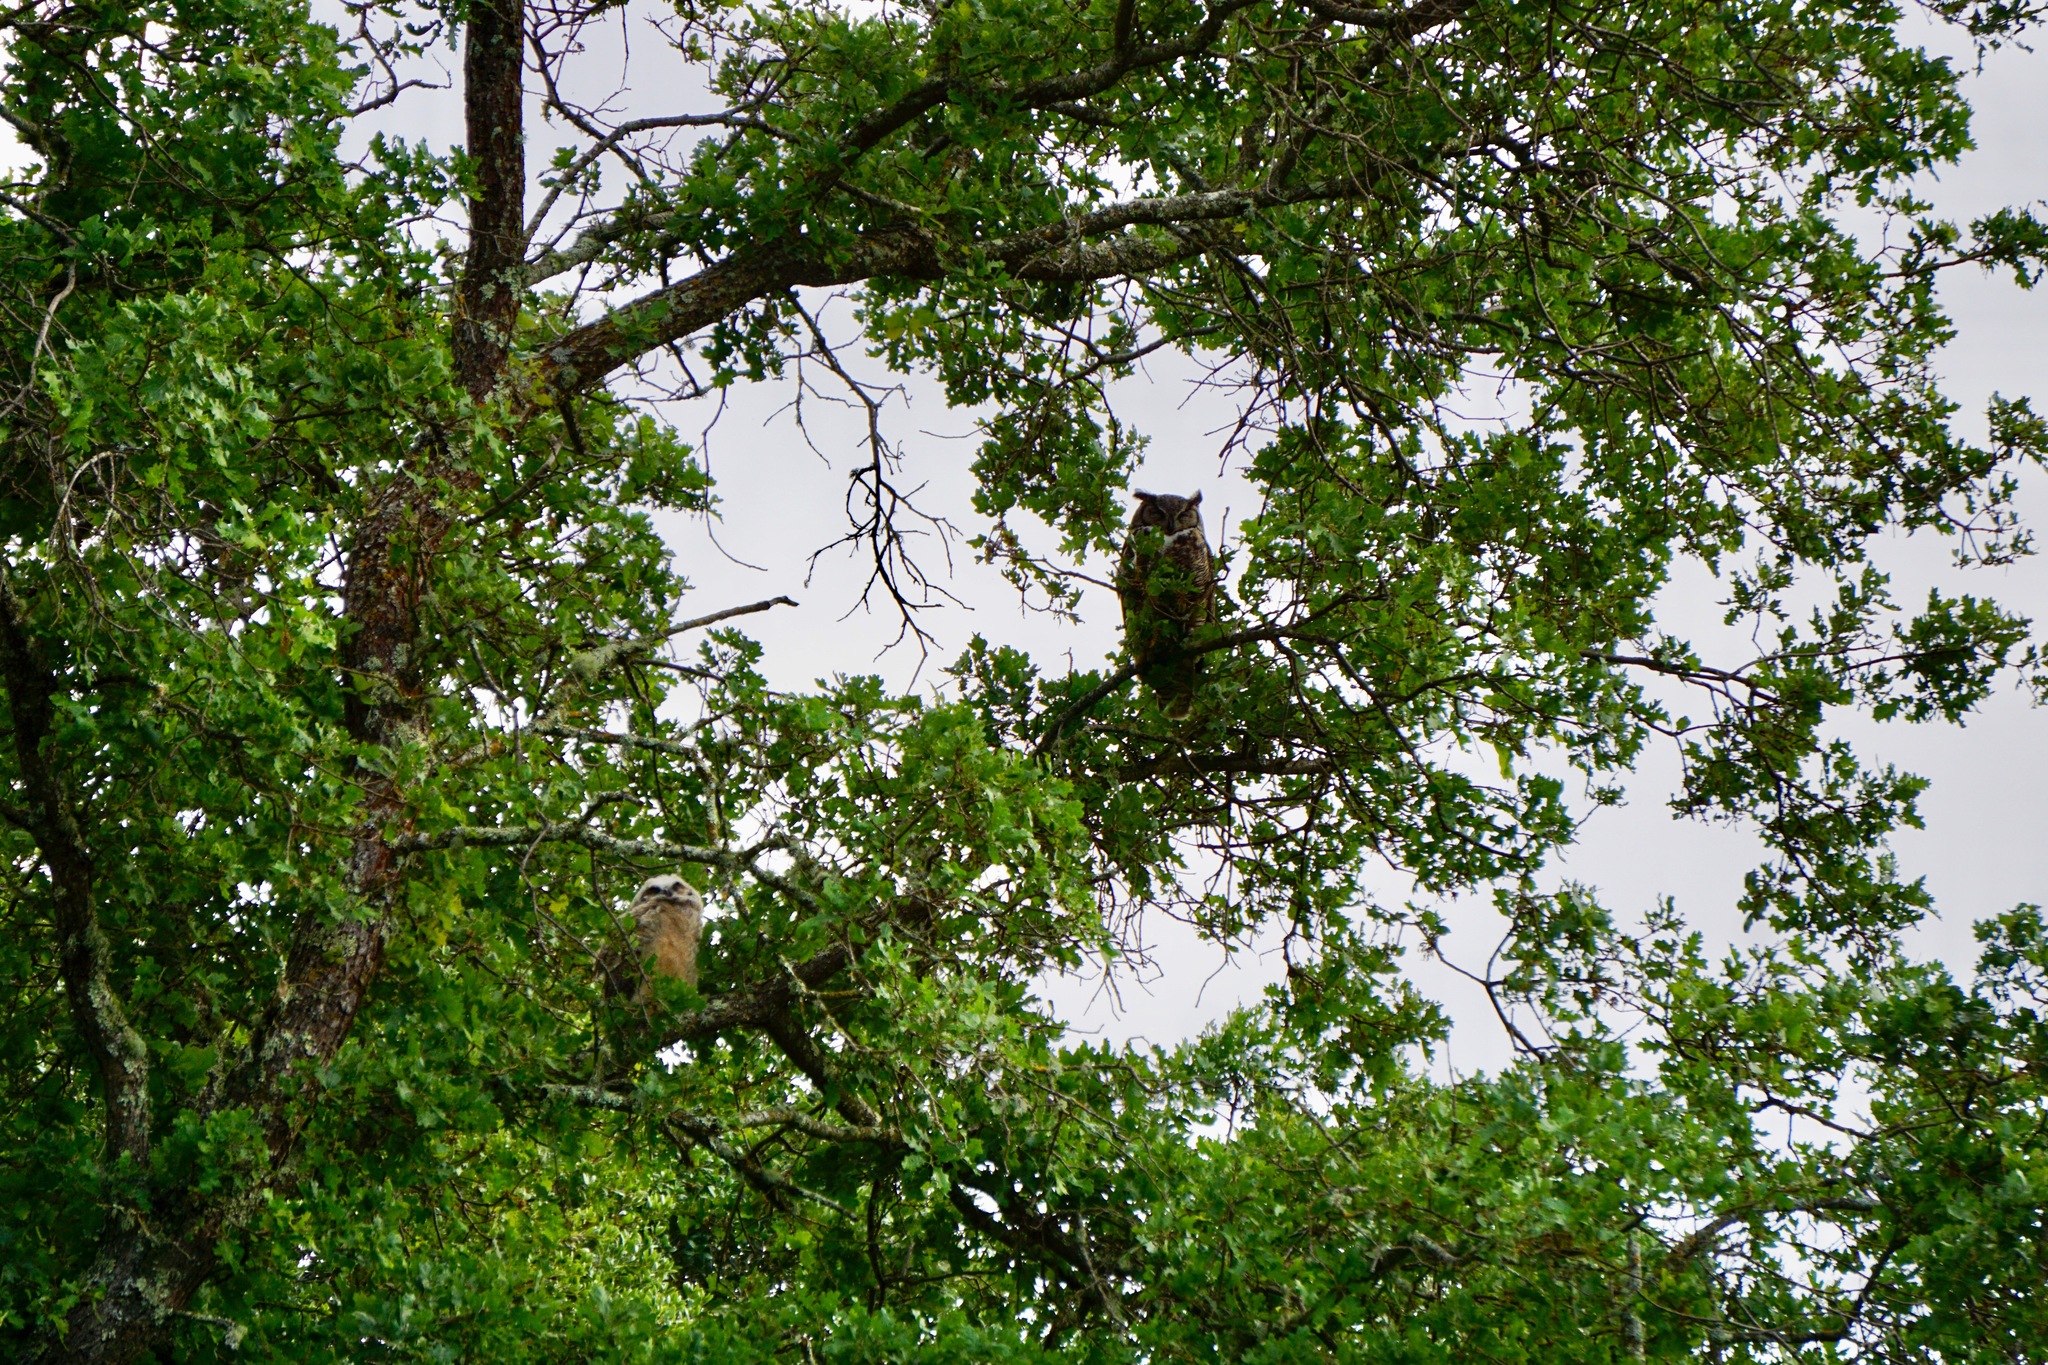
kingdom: Animalia
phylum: Chordata
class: Aves
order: Strigiformes
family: Strigidae
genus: Bubo
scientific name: Bubo virginianus
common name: Great horned owl
